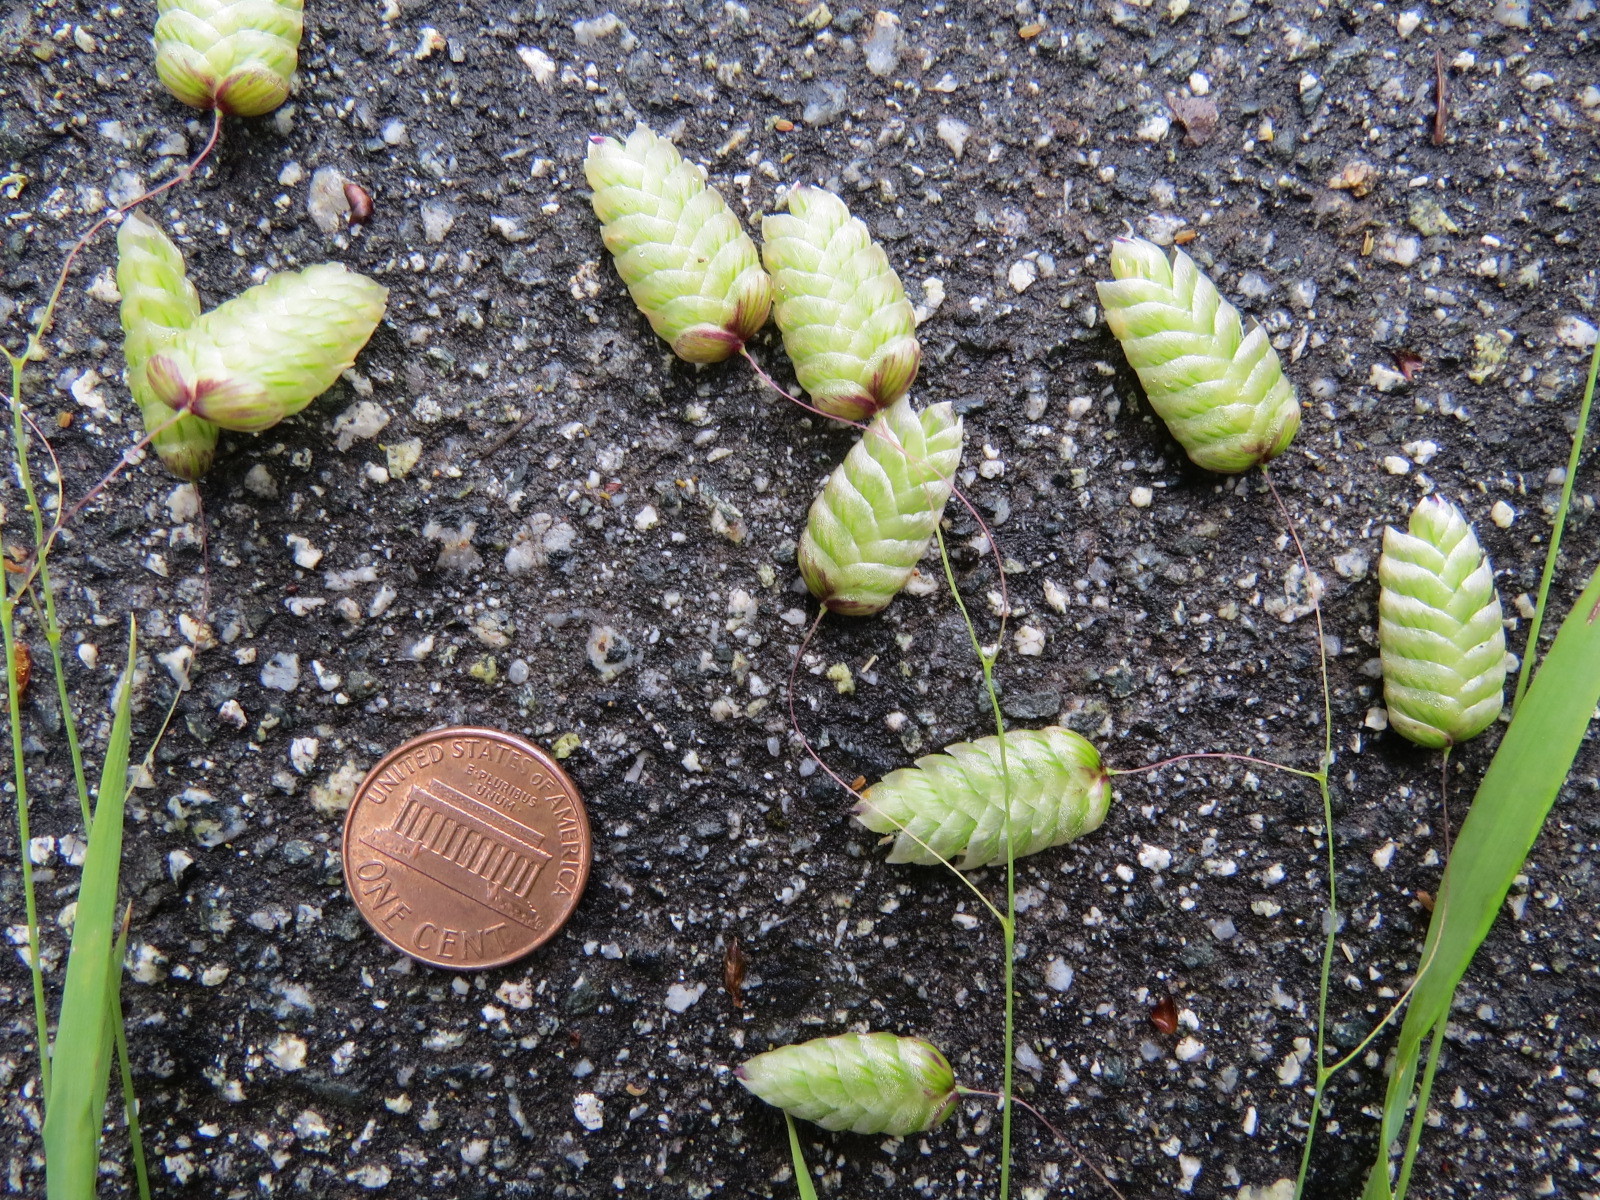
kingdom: Plantae
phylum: Tracheophyta
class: Liliopsida
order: Poales
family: Poaceae
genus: Briza
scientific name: Briza maxima
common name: Big quakinggrass
